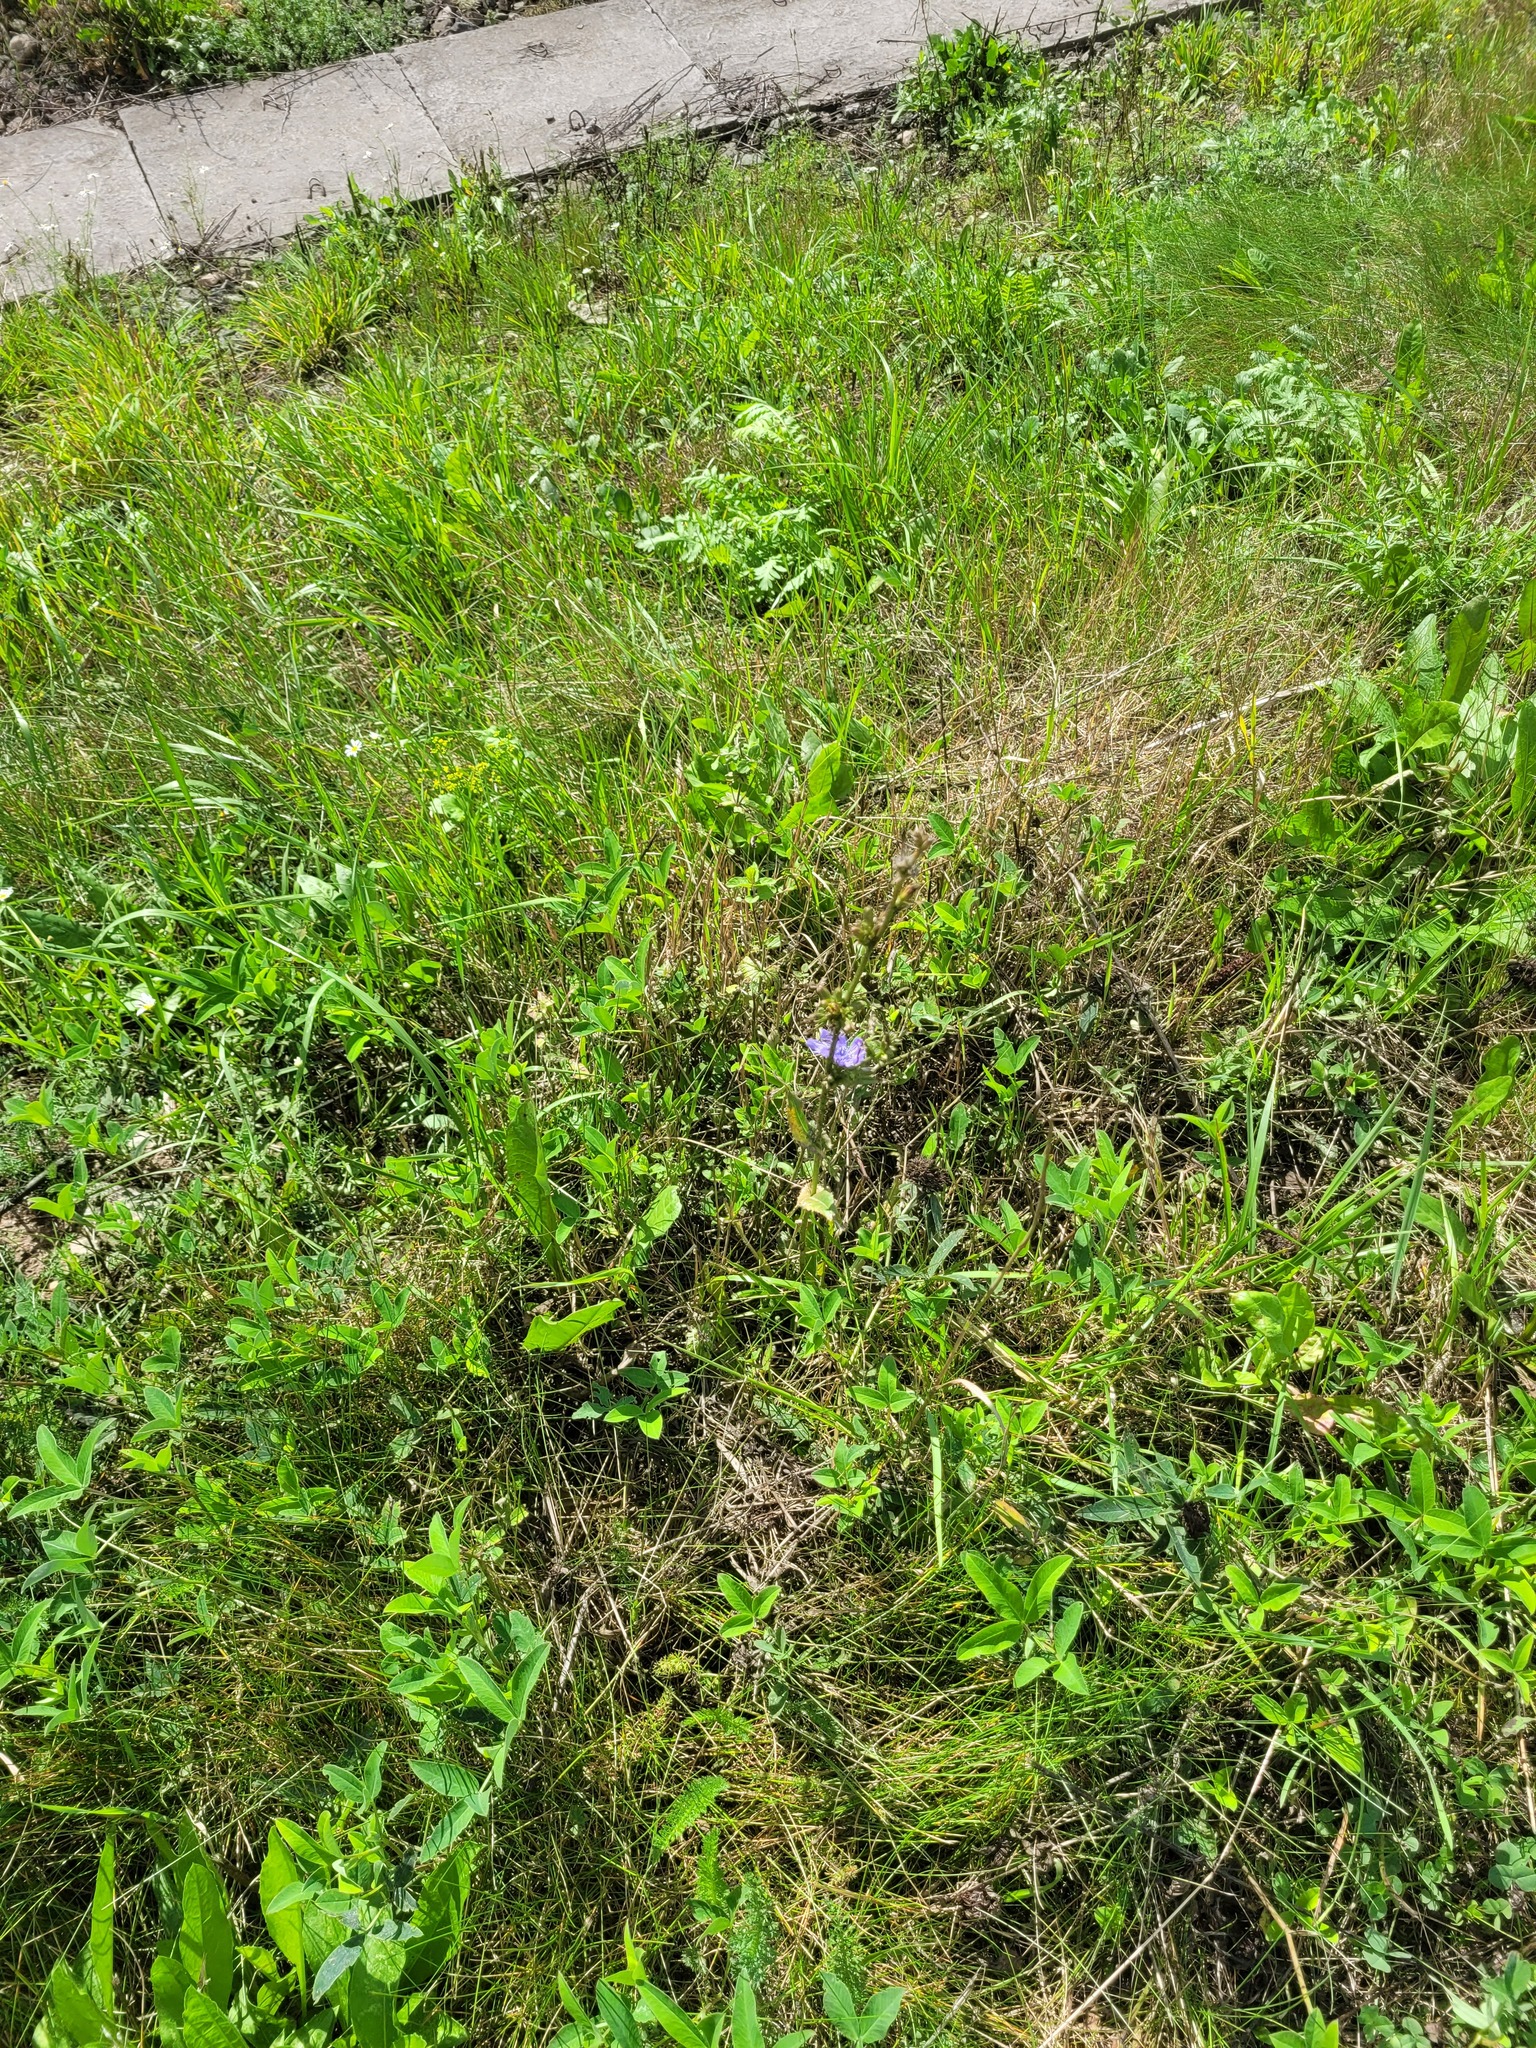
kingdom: Plantae
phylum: Tracheophyta
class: Magnoliopsida
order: Asterales
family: Asteraceae
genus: Cichorium
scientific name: Cichorium intybus
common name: Chicory
